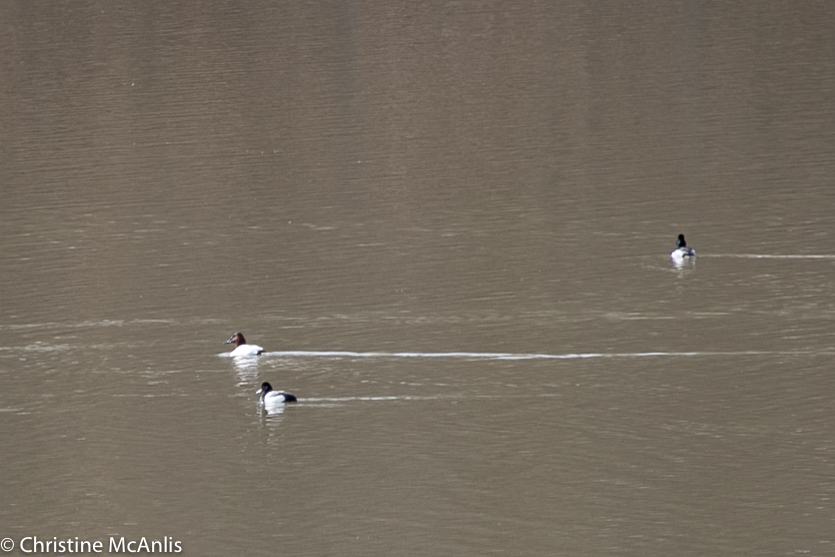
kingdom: Animalia
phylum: Chordata
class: Aves
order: Anseriformes
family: Anatidae
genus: Aythya
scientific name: Aythya valisineria
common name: Canvasback
